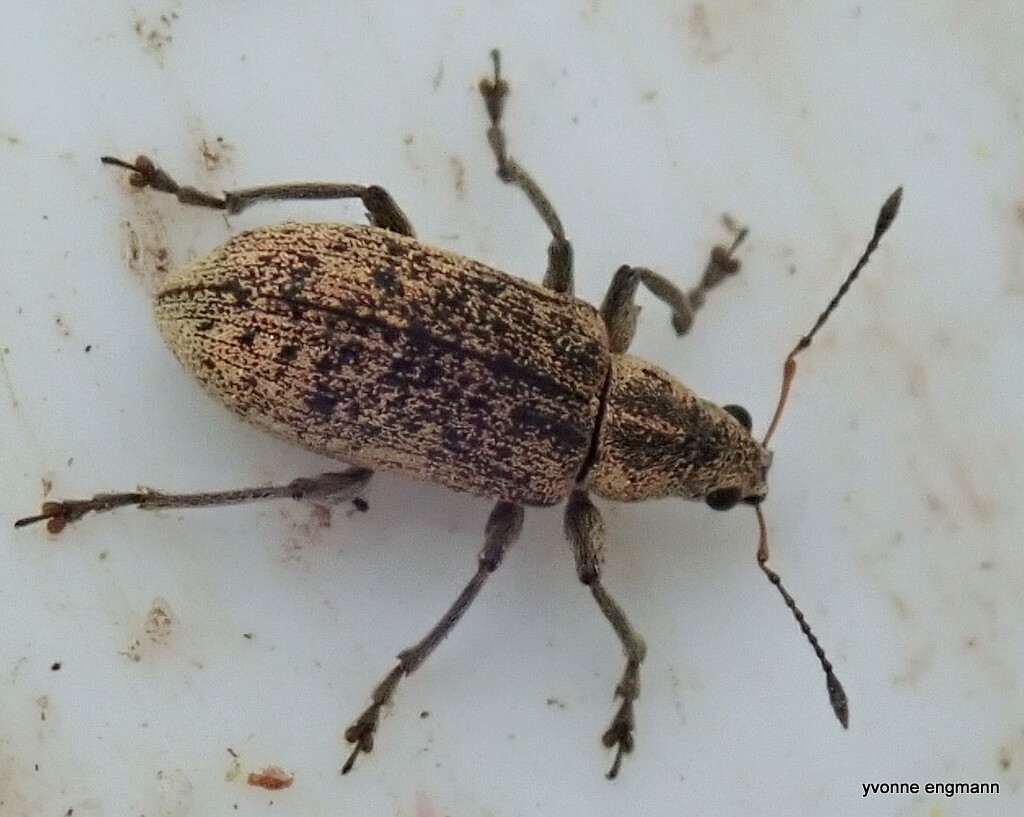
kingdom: Animalia
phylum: Arthropoda
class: Insecta
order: Coleoptera
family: Curculionidae
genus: Polydrusus
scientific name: Polydrusus cervinus
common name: Weevil
